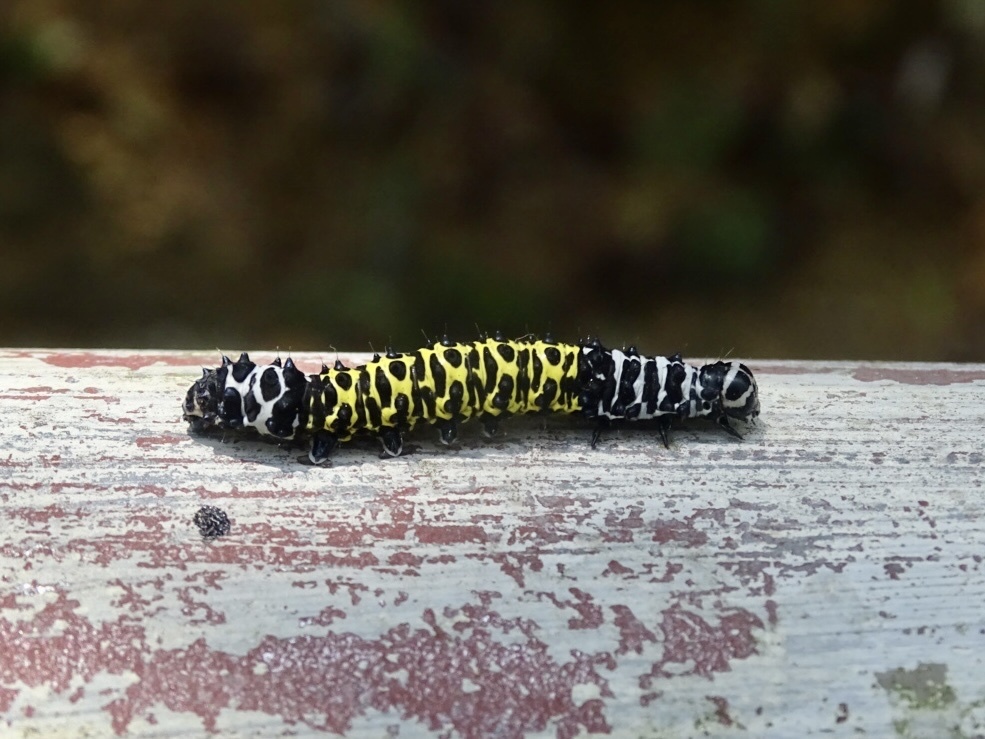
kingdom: Animalia
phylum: Arthropoda
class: Insecta
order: Lepidoptera
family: Noctuidae
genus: Tycracona
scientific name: Tycracona obliqua
